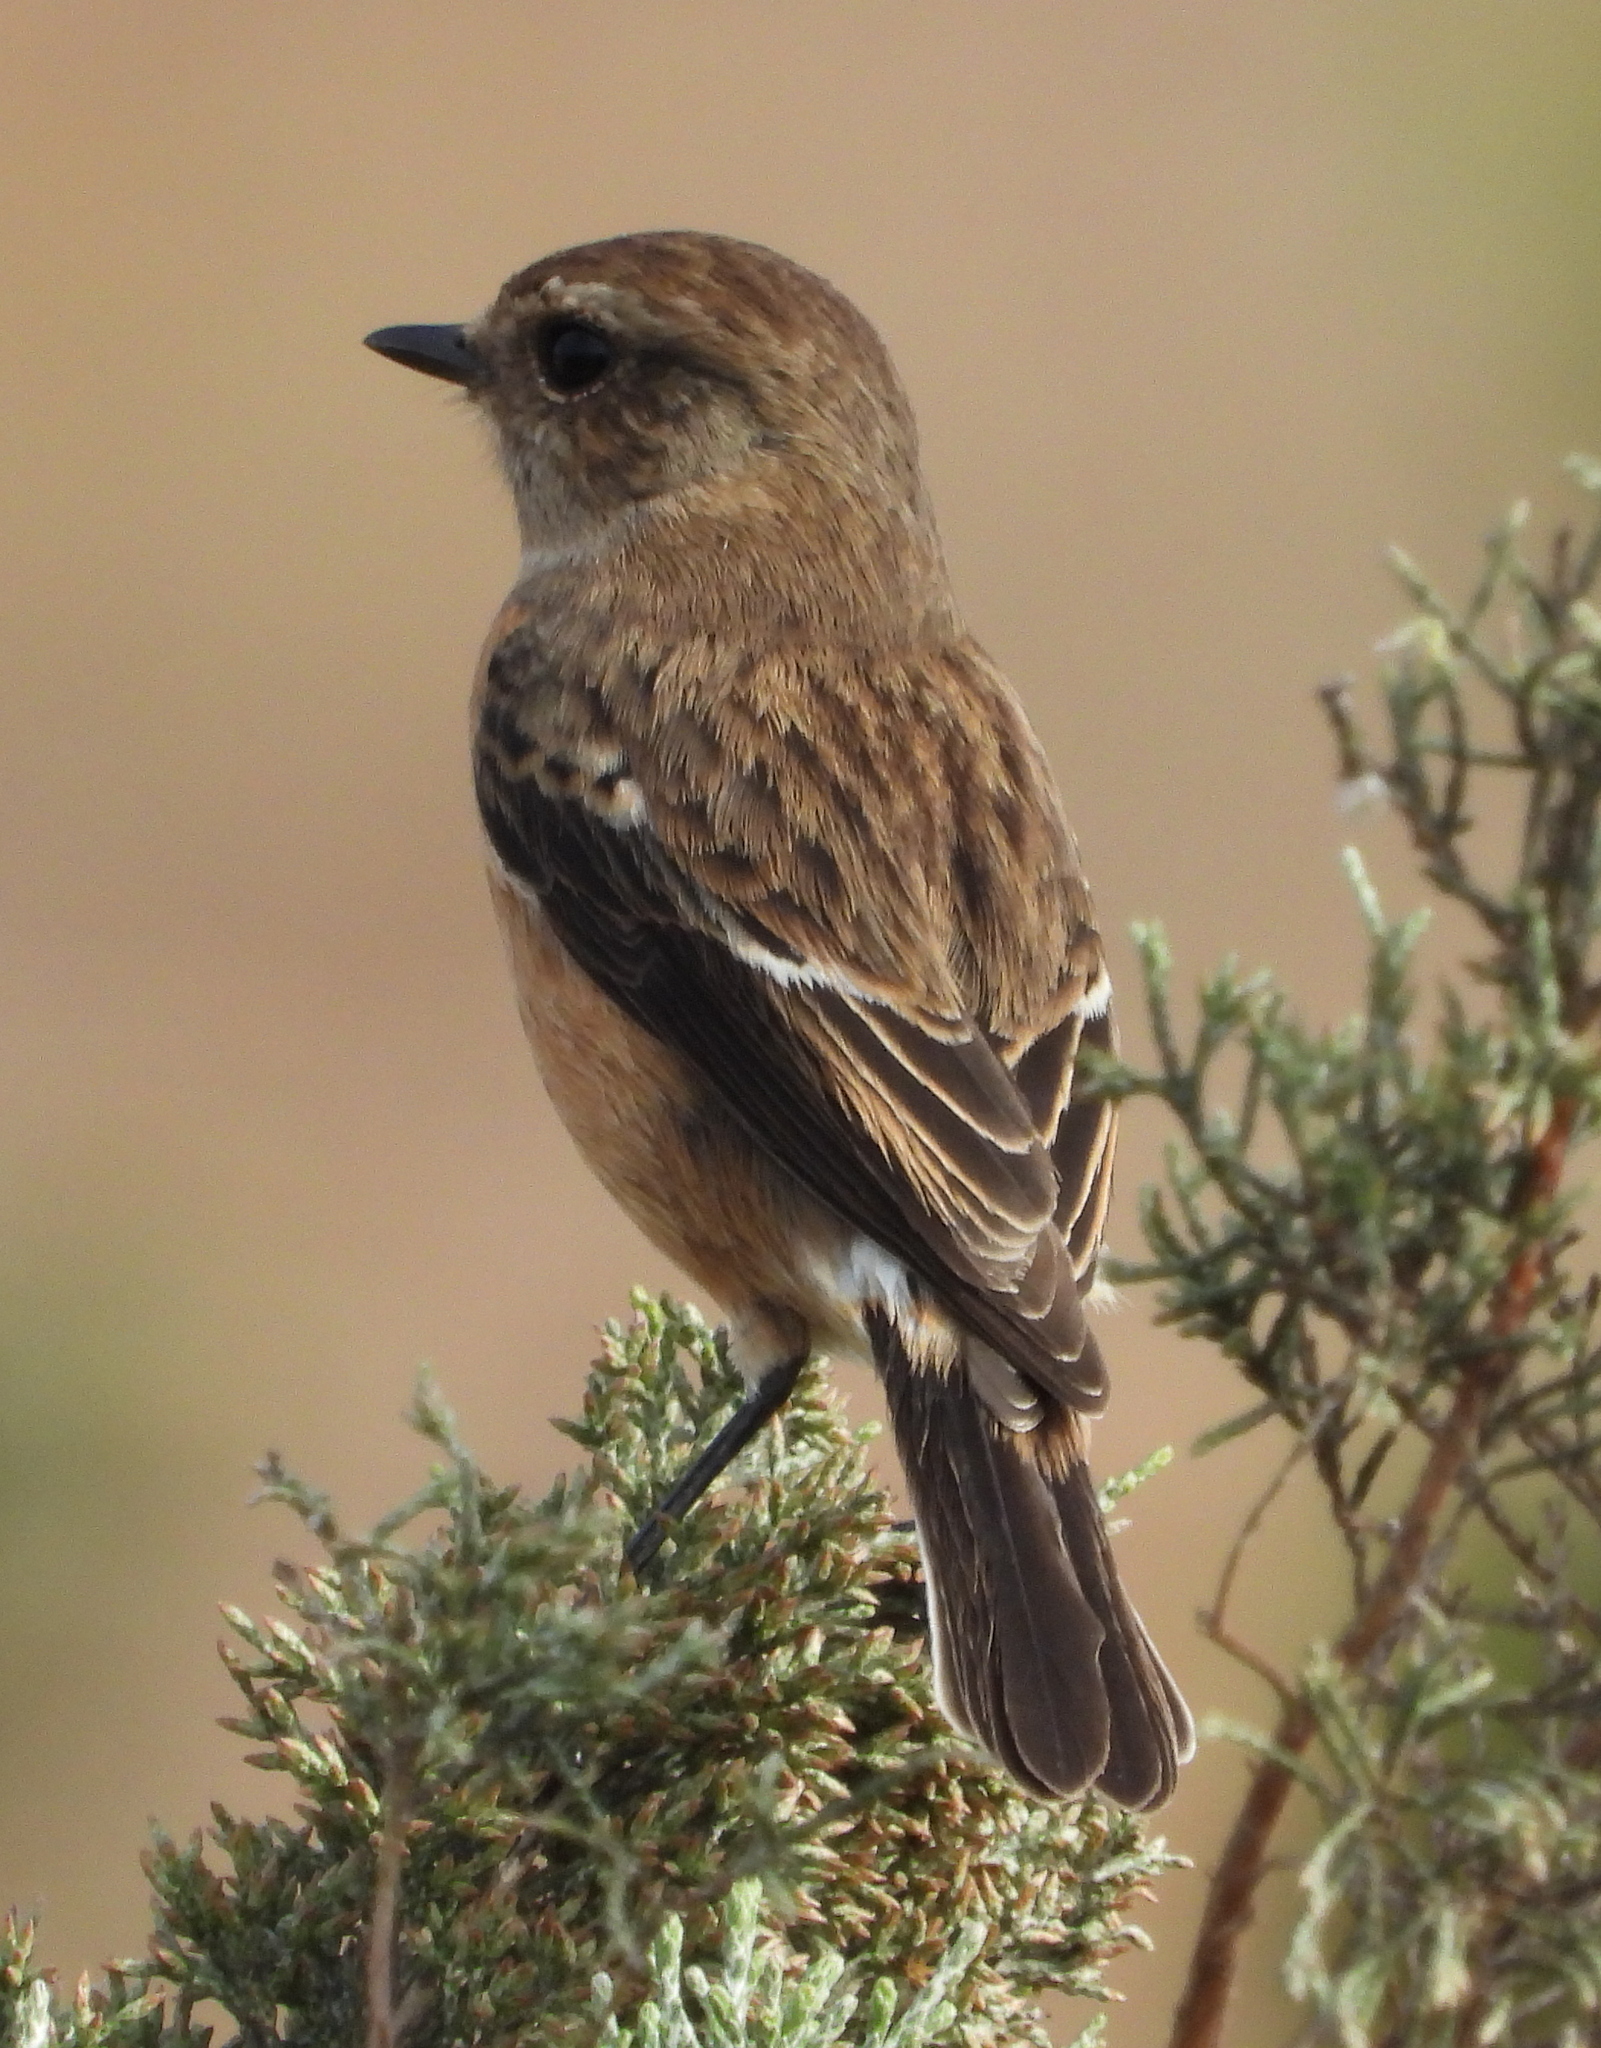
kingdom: Animalia
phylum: Chordata
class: Aves
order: Passeriformes
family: Muscicapidae
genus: Saxicola
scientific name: Saxicola torquatus
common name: African stonechat
